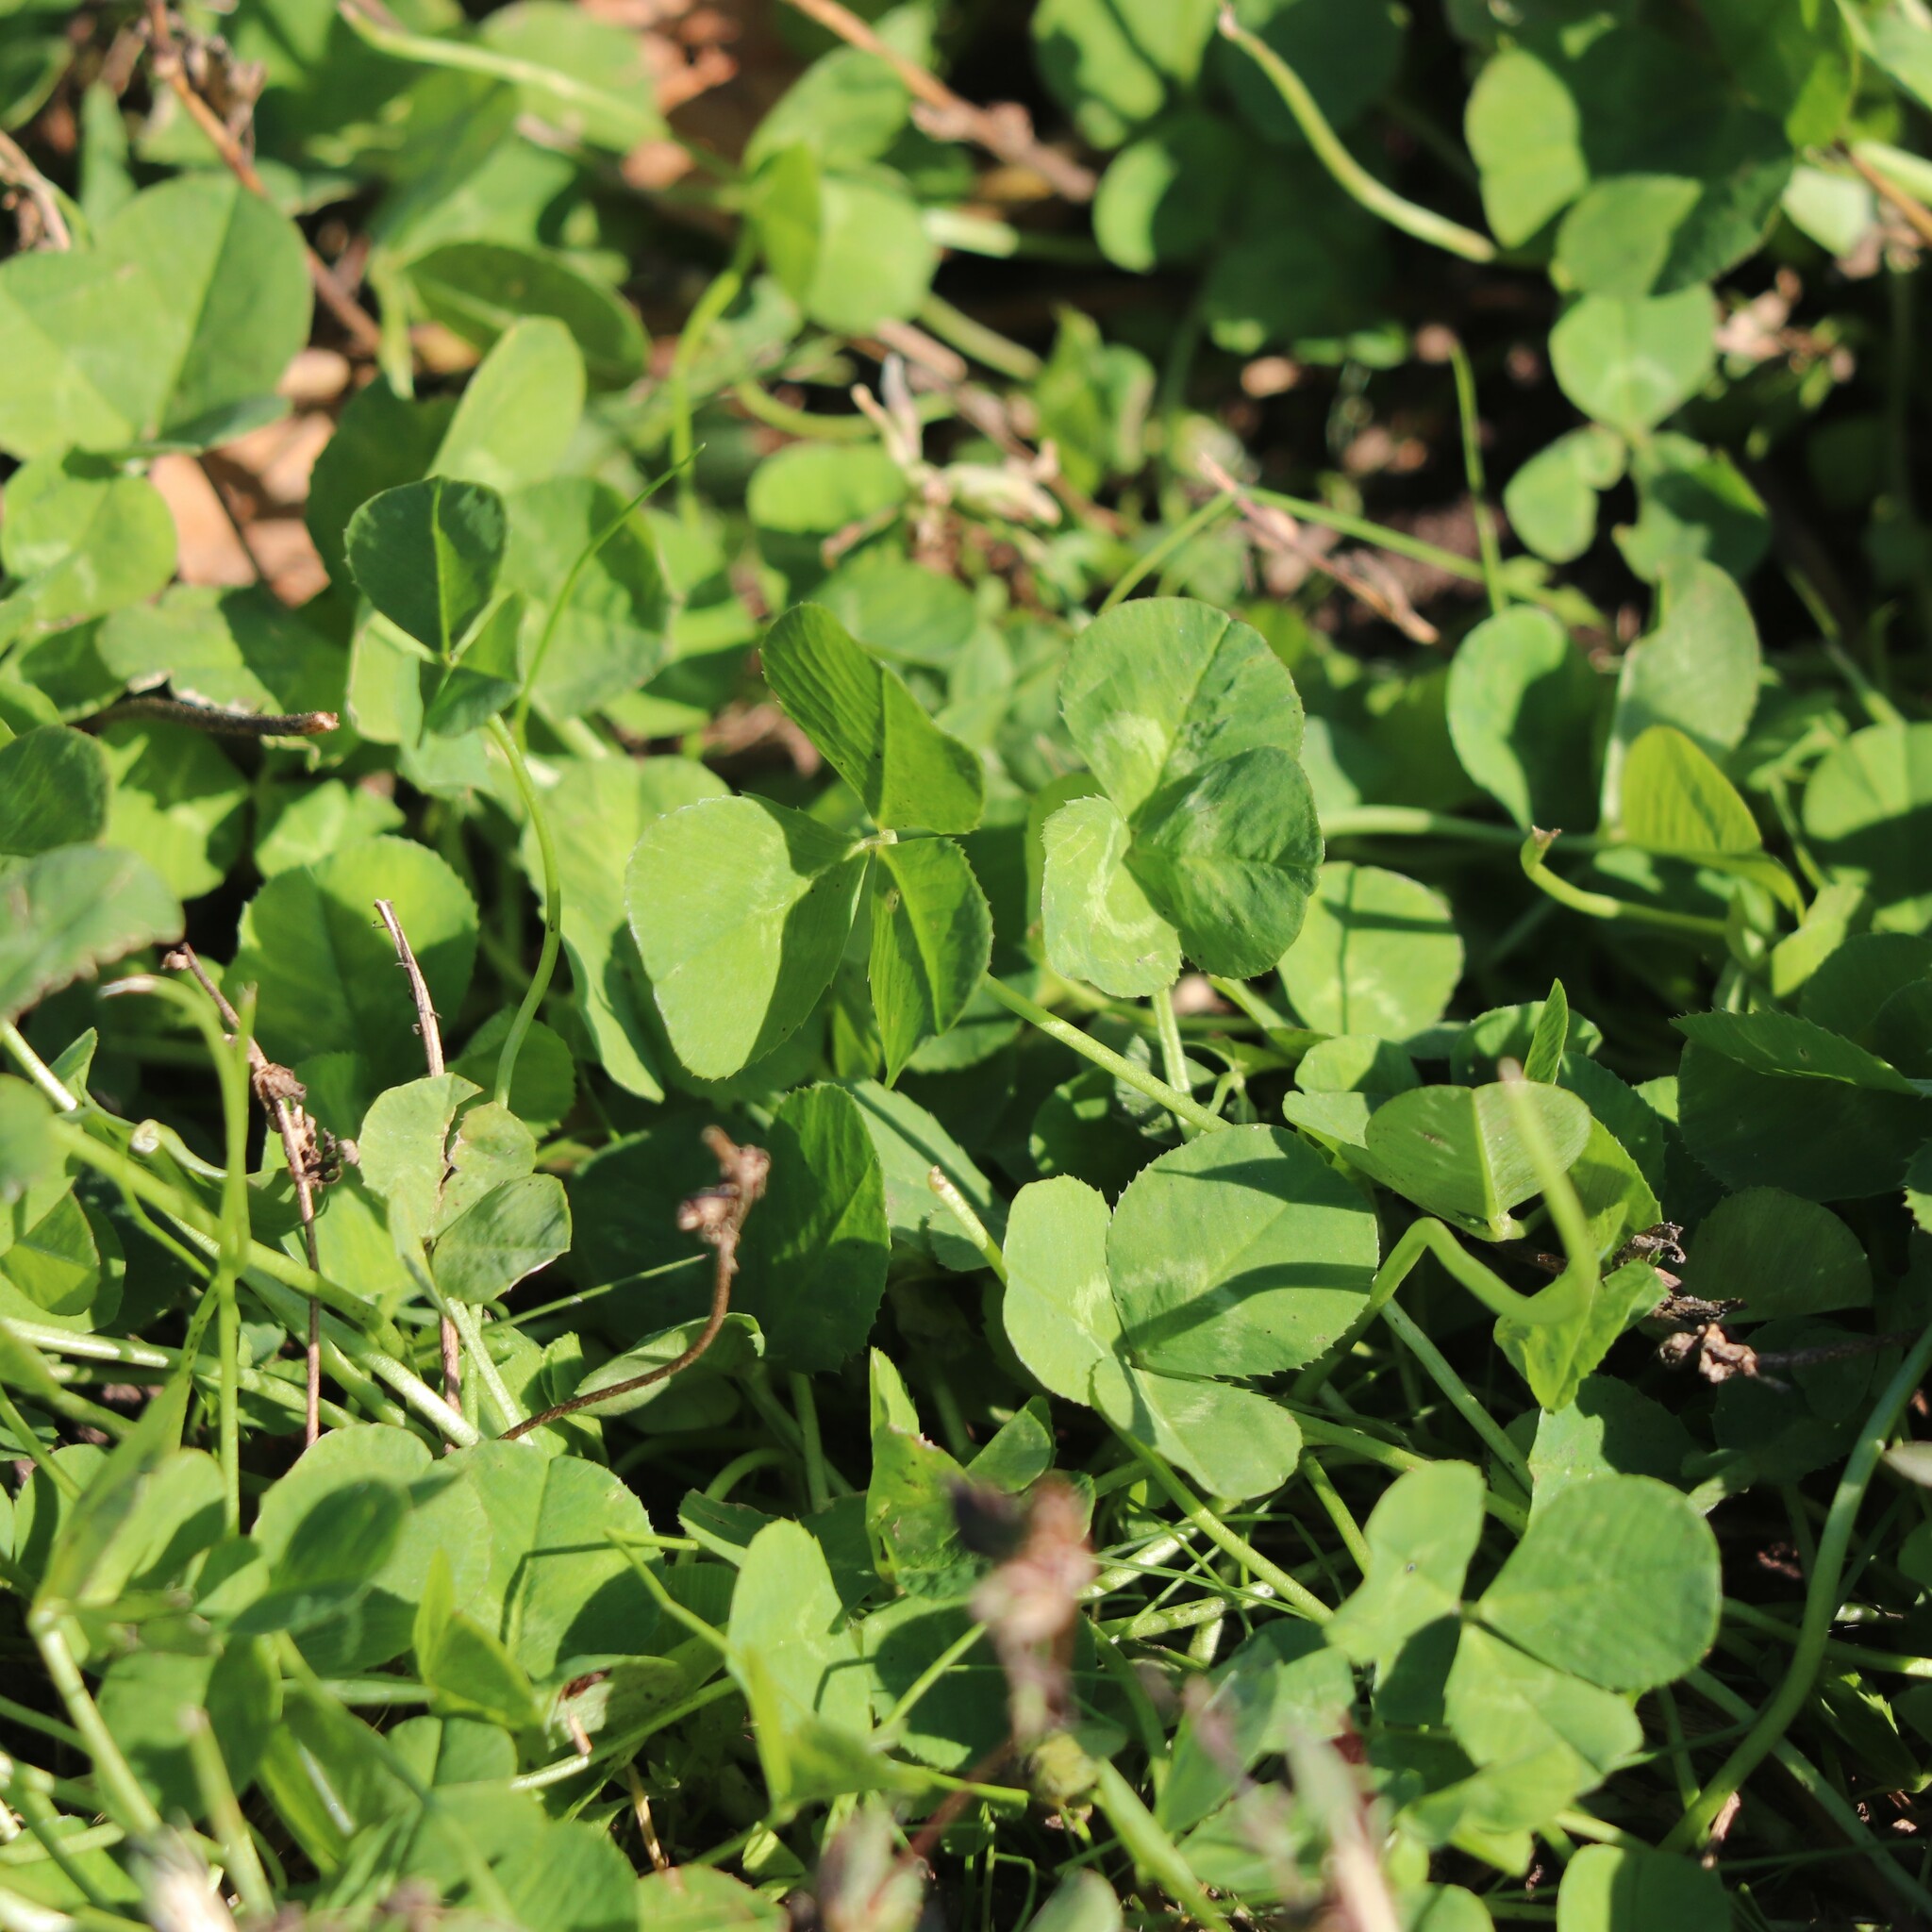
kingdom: Plantae
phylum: Tracheophyta
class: Magnoliopsida
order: Fabales
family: Fabaceae
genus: Trifolium
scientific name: Trifolium repens
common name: White clover
